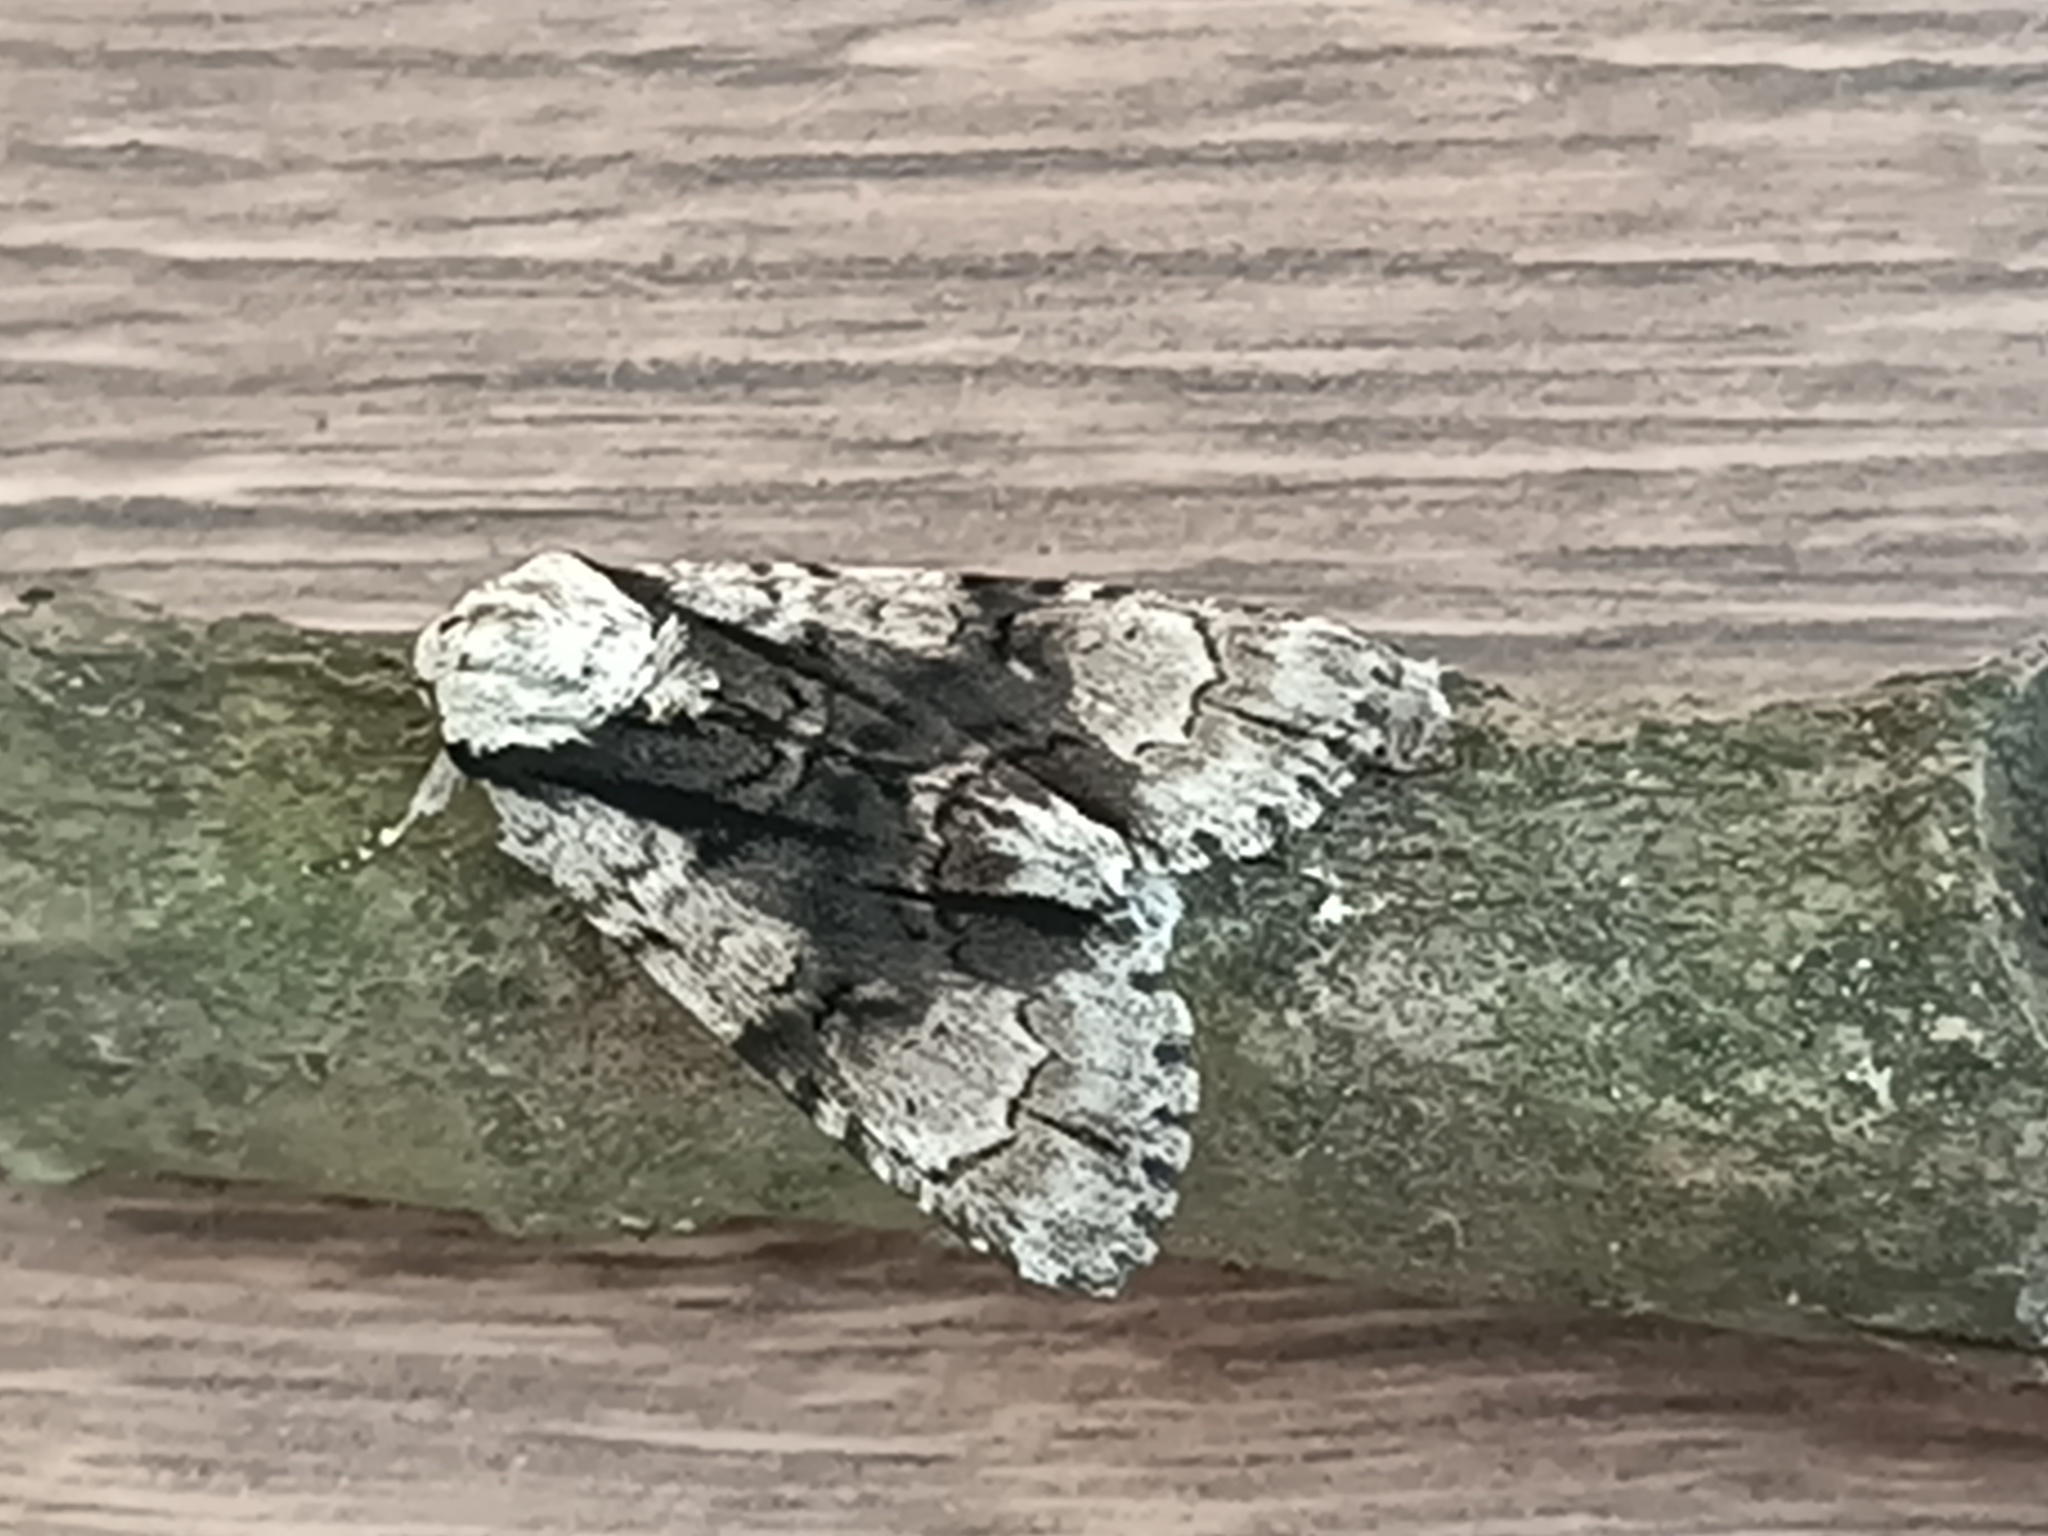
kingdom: Animalia
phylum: Arthropoda
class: Insecta
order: Lepidoptera
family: Noctuidae
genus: Acronicta
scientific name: Acronicta alni
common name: Alder moth
